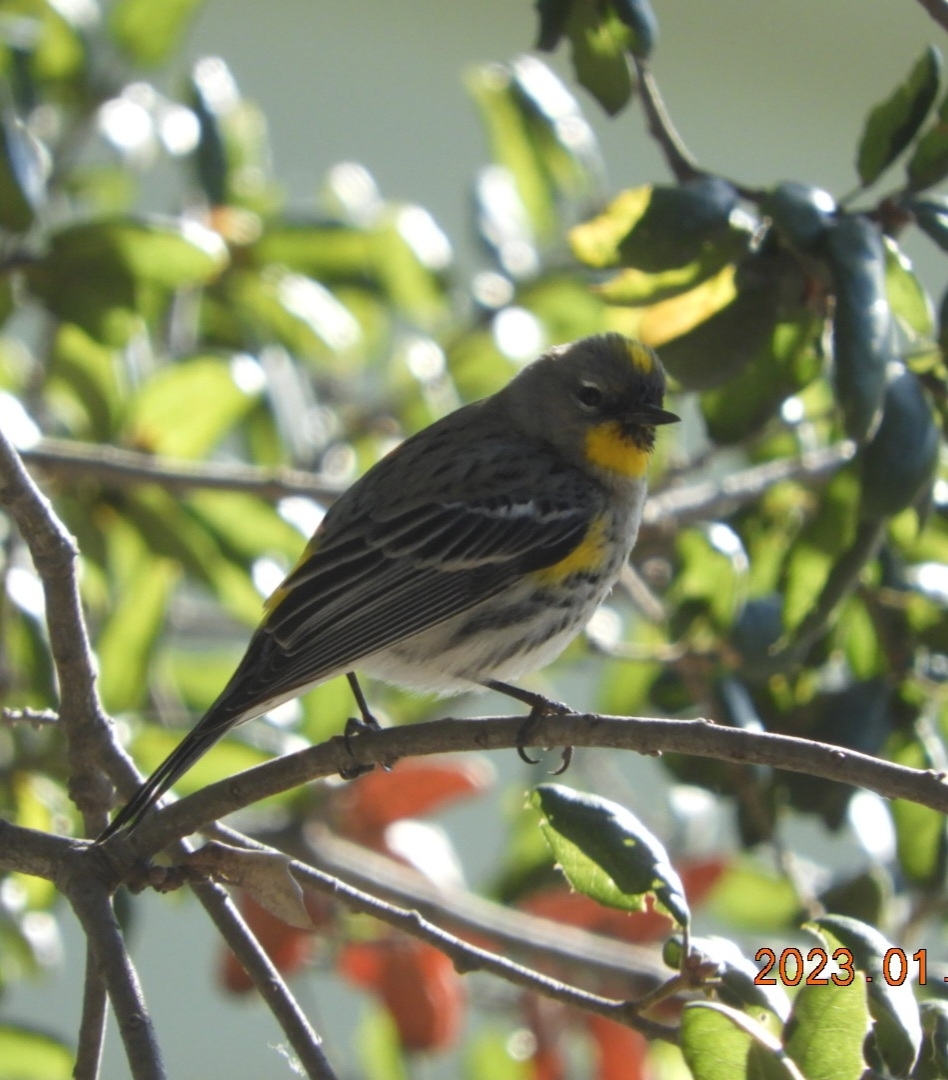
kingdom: Animalia
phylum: Chordata
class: Aves
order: Passeriformes
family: Parulidae
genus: Setophaga
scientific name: Setophaga coronata
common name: Myrtle warbler
